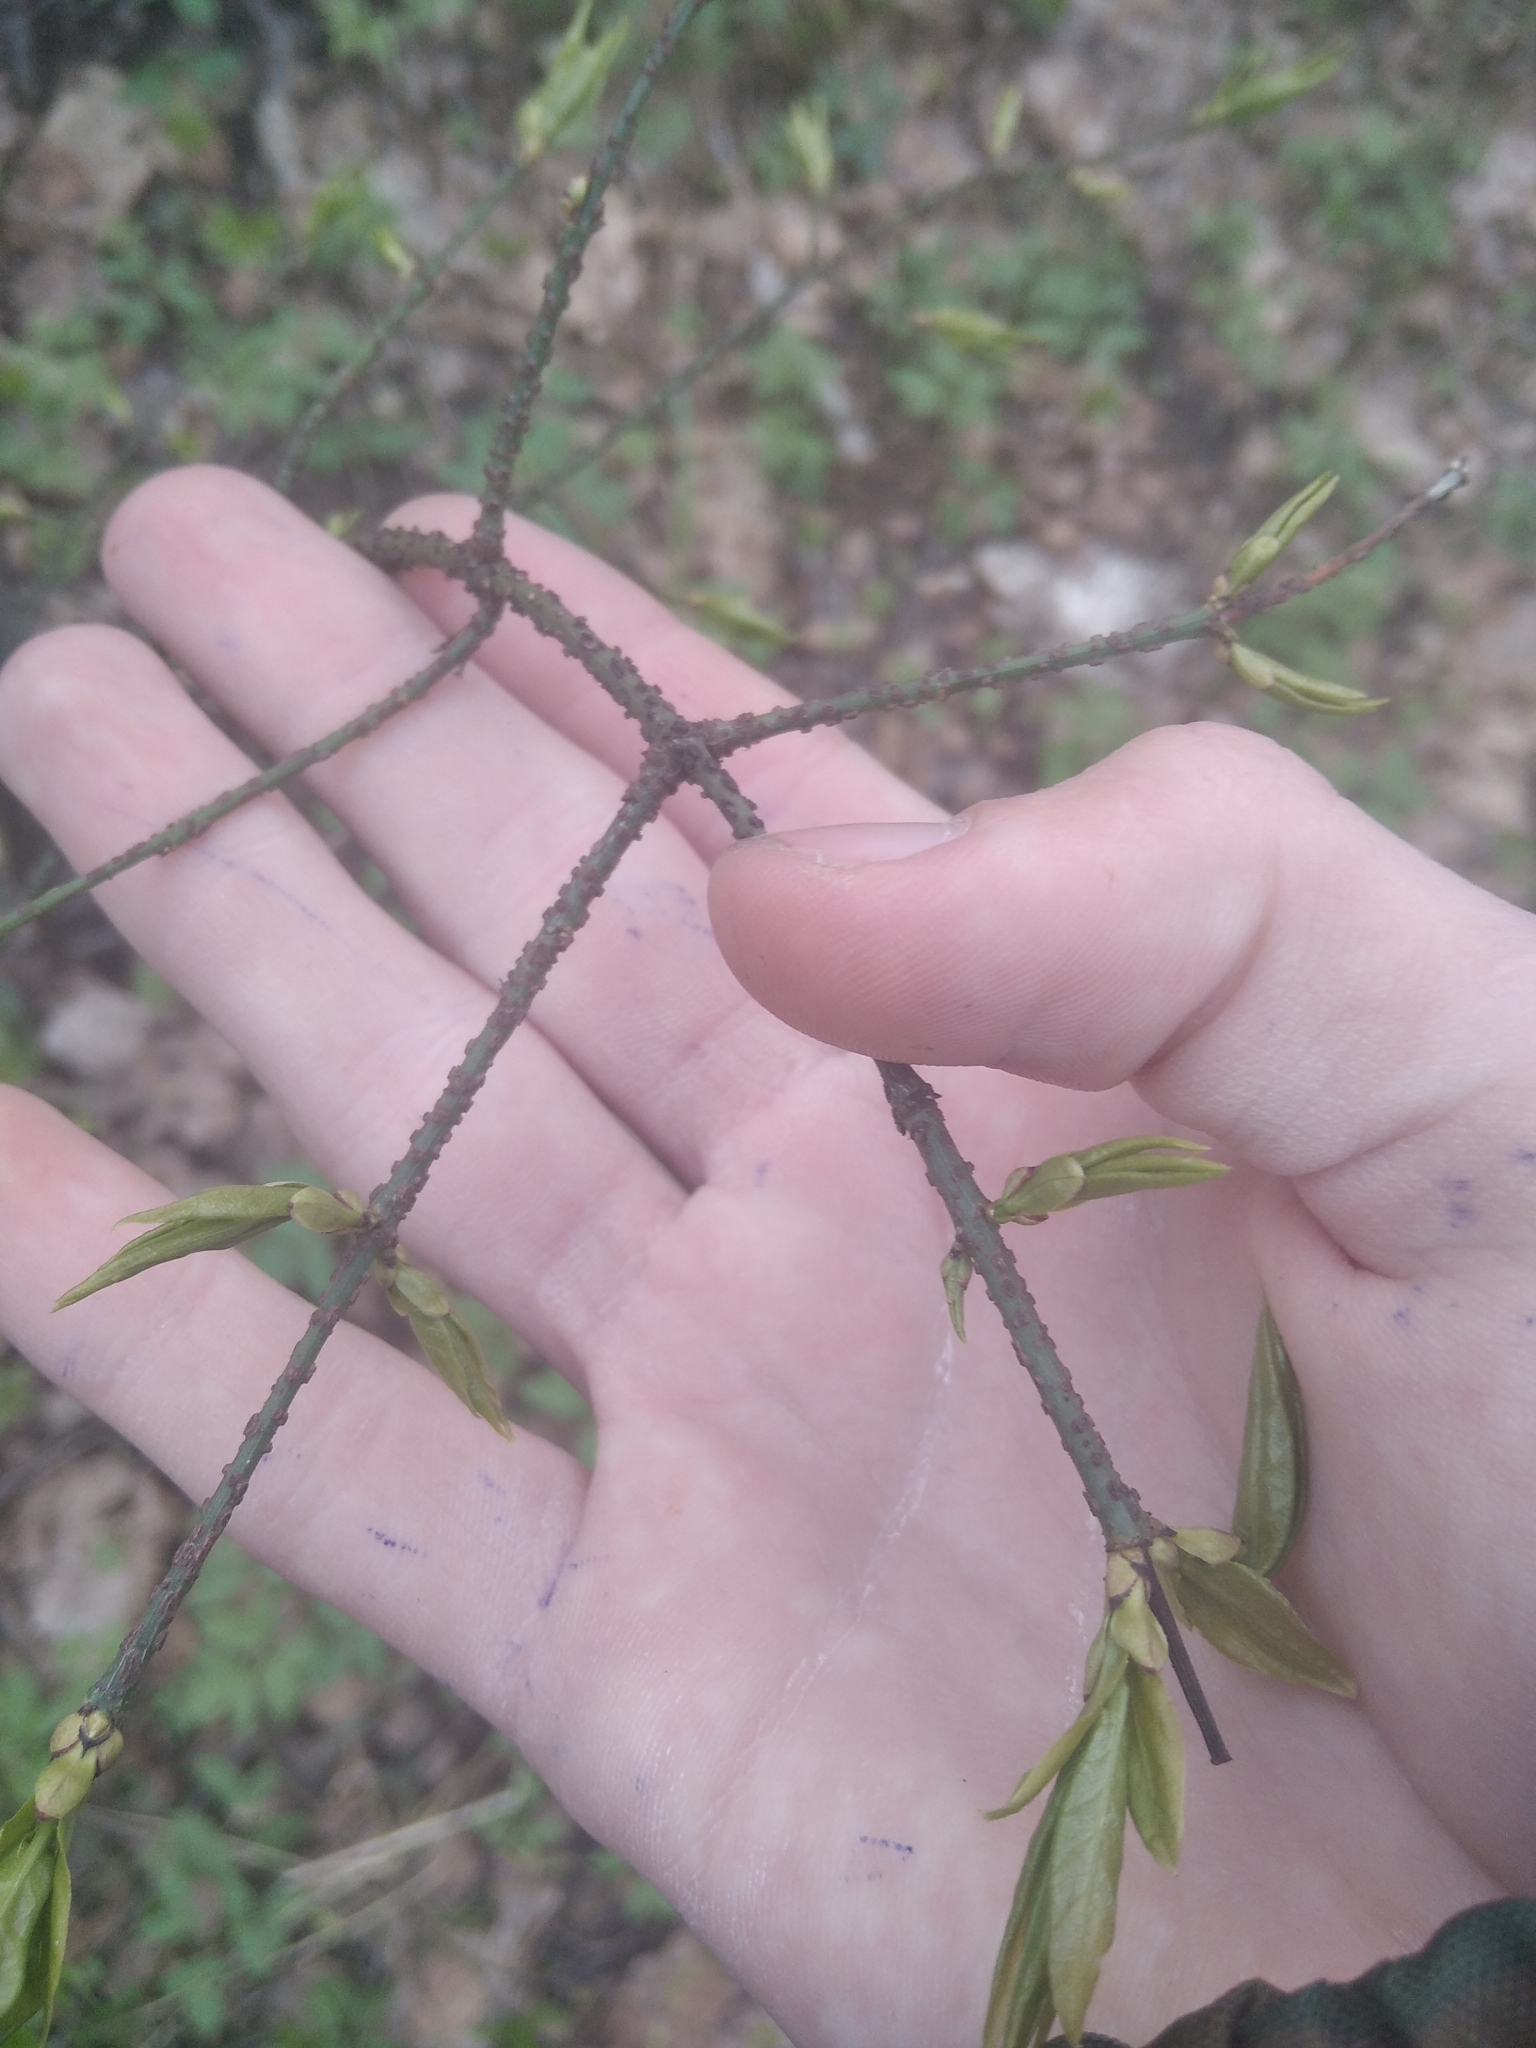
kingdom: Plantae
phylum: Tracheophyta
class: Magnoliopsida
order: Celastrales
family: Celastraceae
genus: Euonymus
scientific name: Euonymus verrucosus
